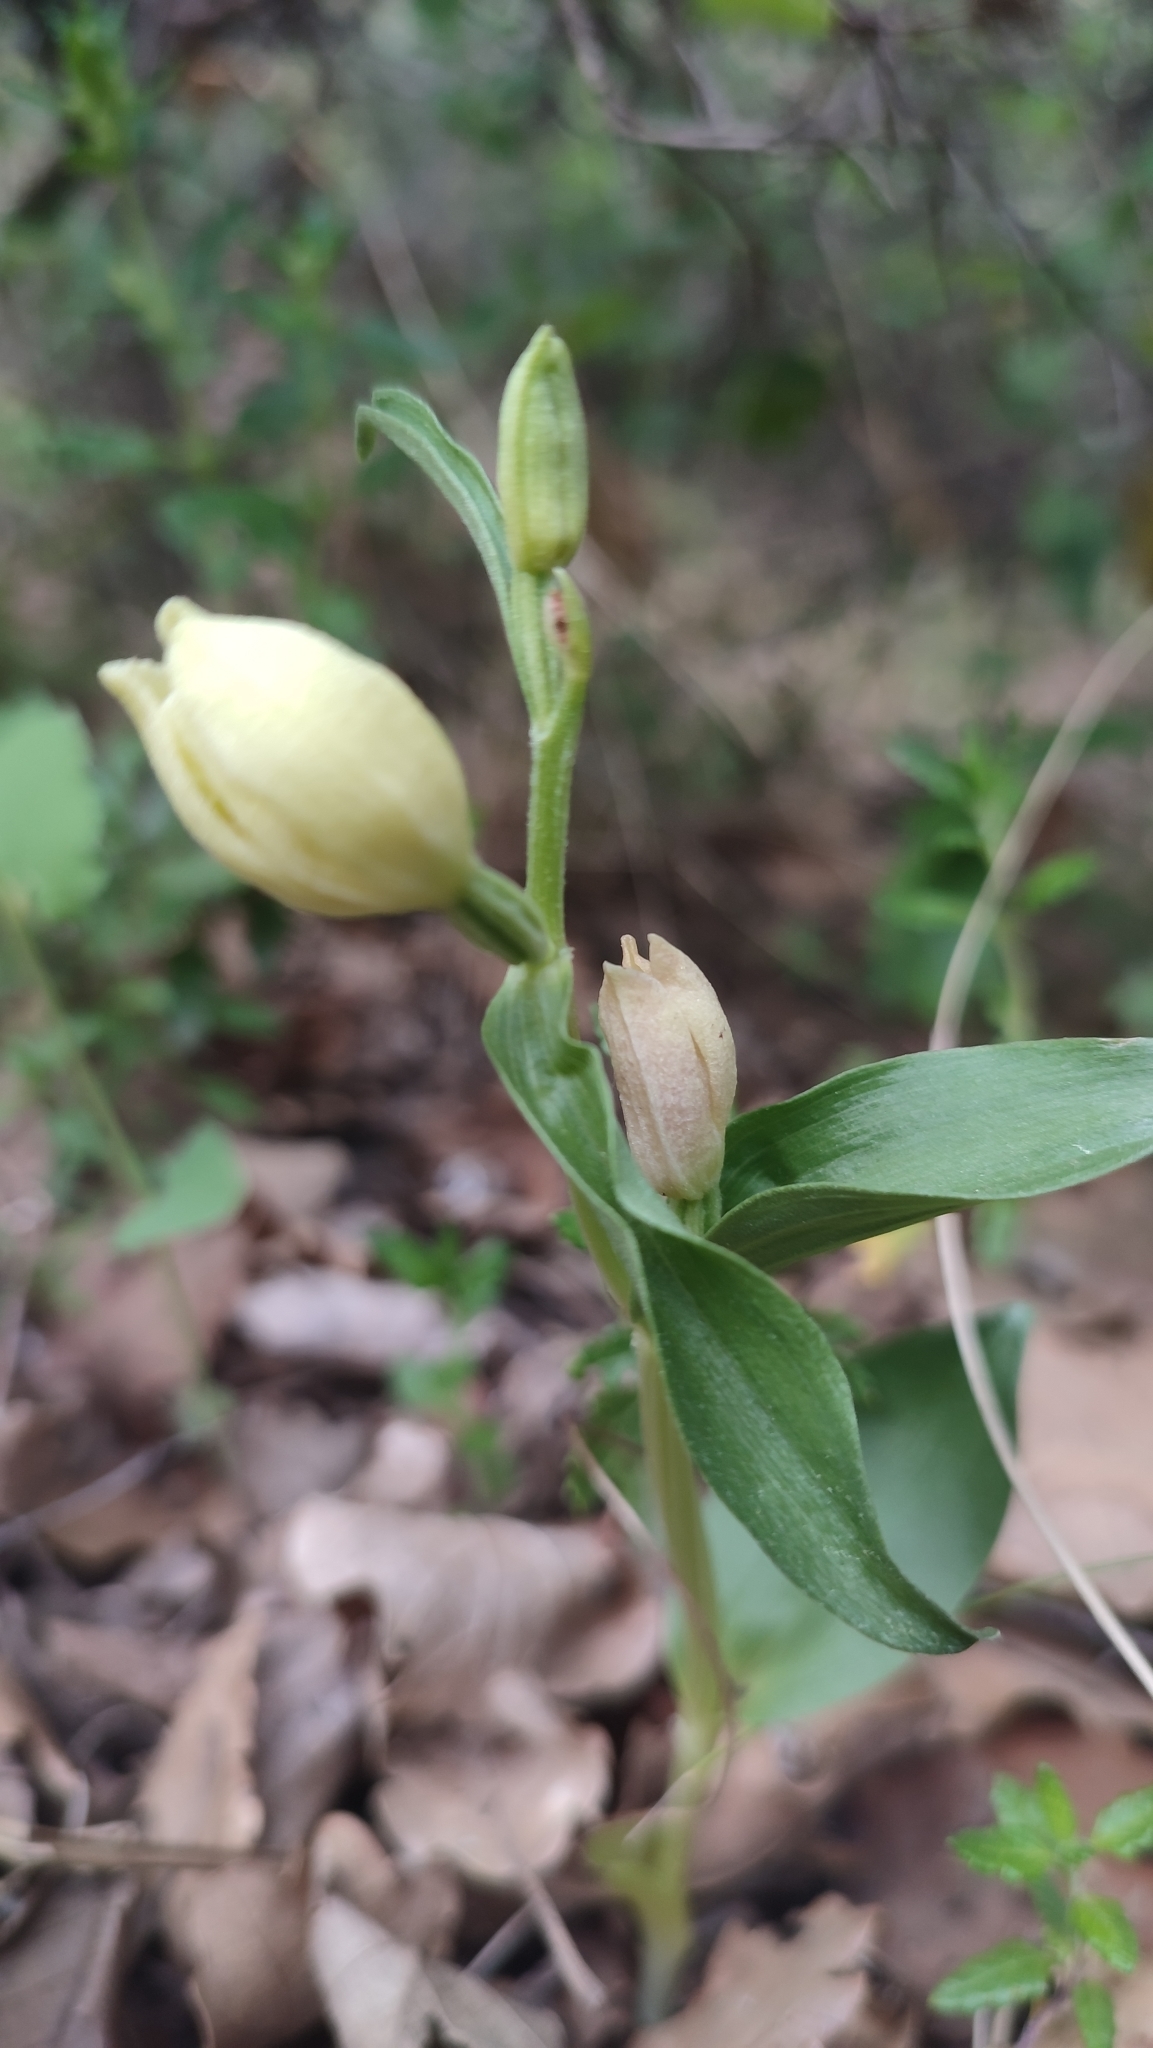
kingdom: Plantae
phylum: Tracheophyta
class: Liliopsida
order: Asparagales
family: Orchidaceae
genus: Cephalanthera
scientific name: Cephalanthera damasonium
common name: White helleborine
